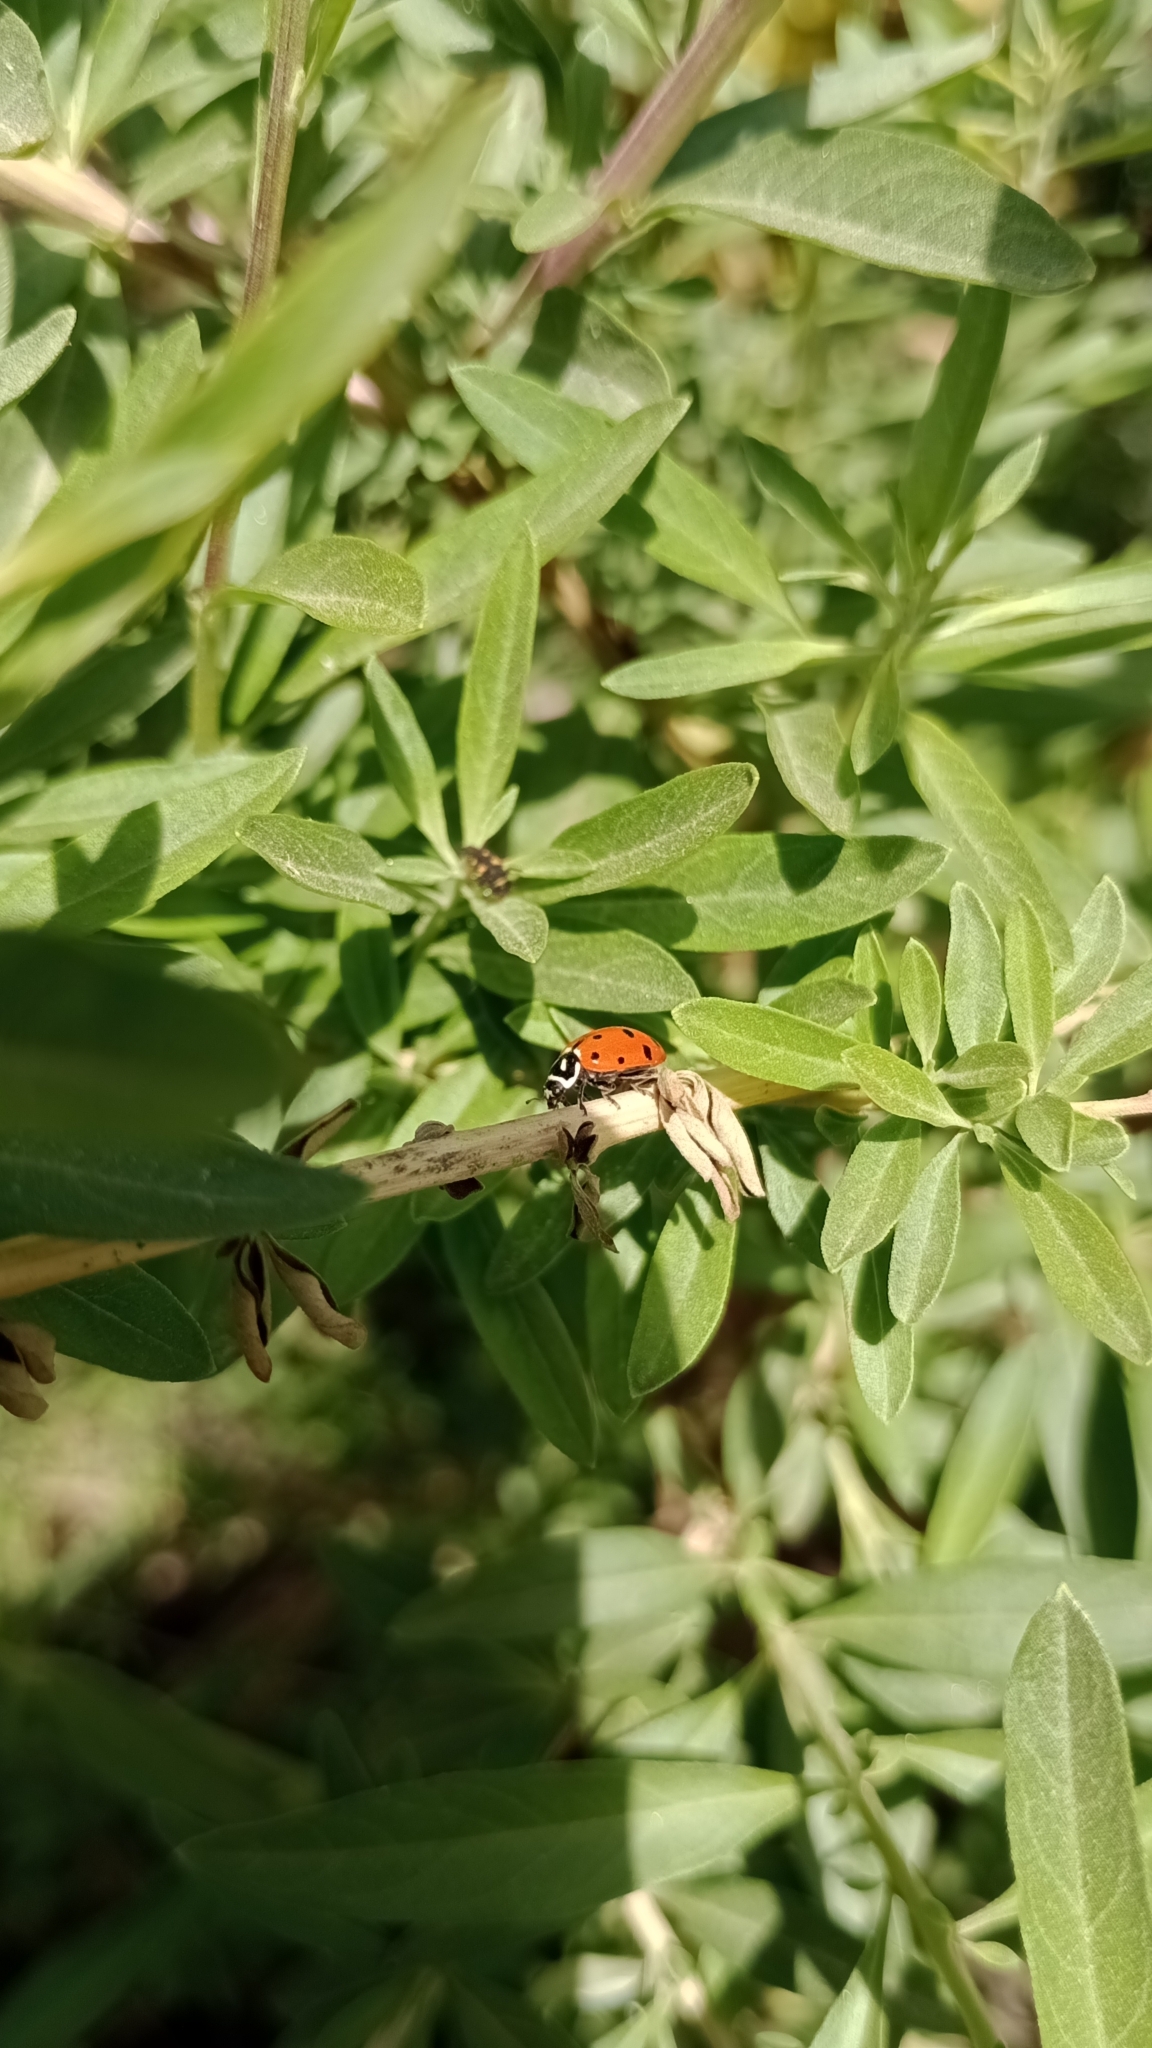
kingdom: Animalia
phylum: Arthropoda
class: Insecta
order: Coleoptera
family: Coccinellidae
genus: Hippodamia
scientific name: Hippodamia convergens
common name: Convergent lady beetle
